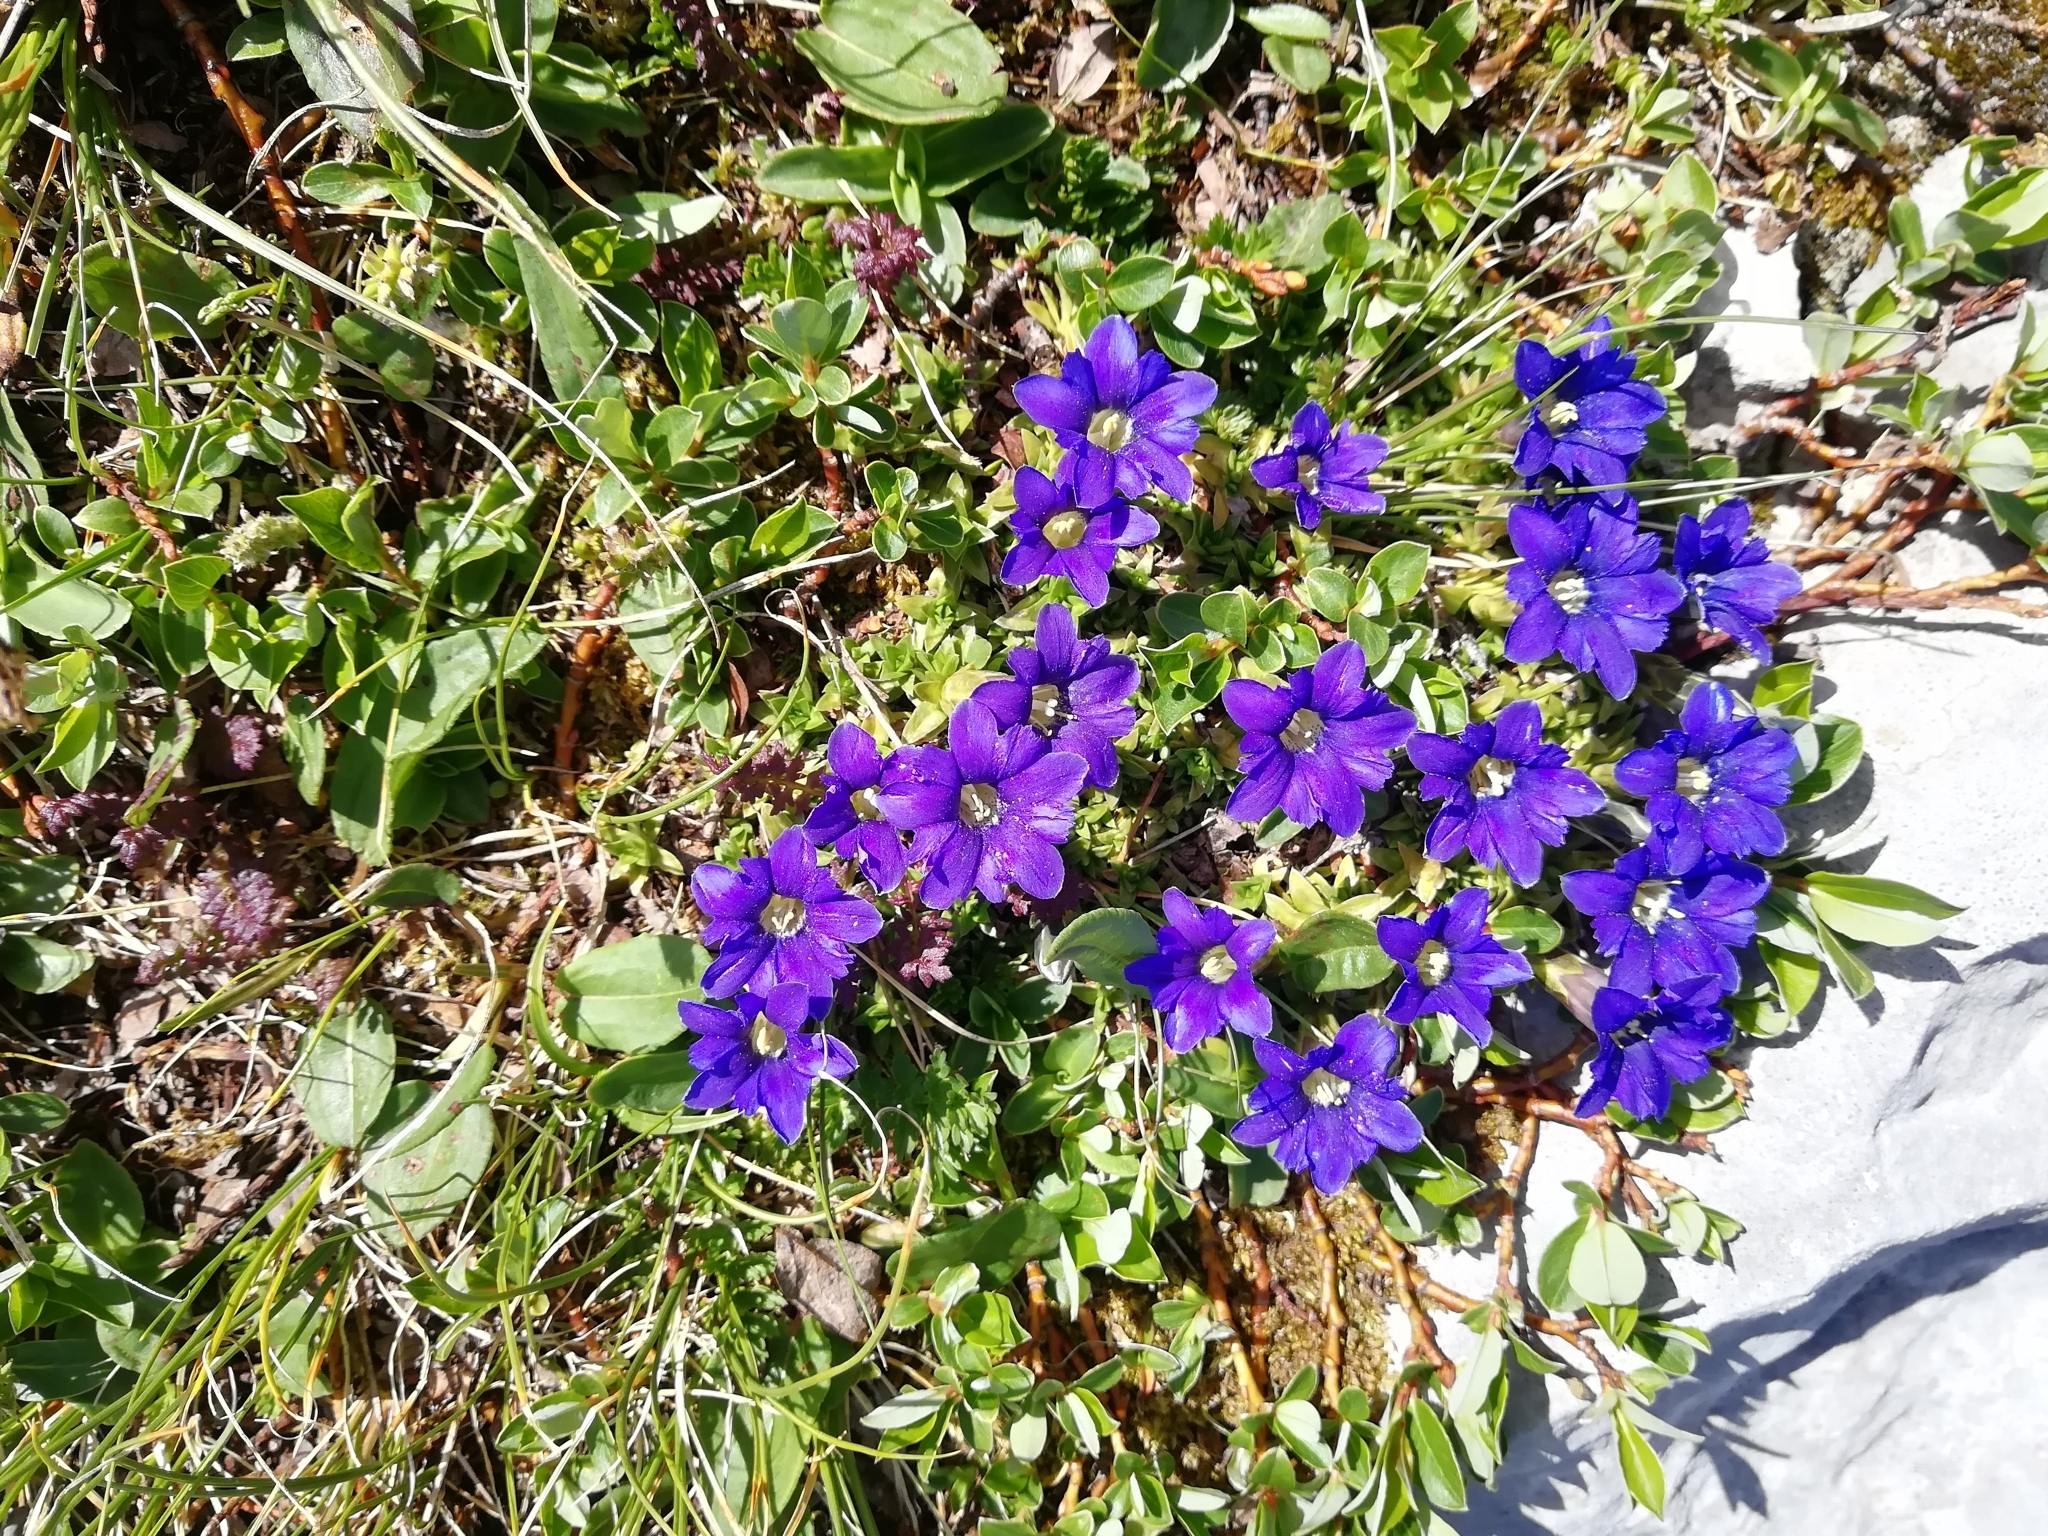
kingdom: Plantae
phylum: Tracheophyta
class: Magnoliopsida
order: Gentianales
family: Gentianaceae
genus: Gentiana
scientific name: Gentiana dshimilensis
